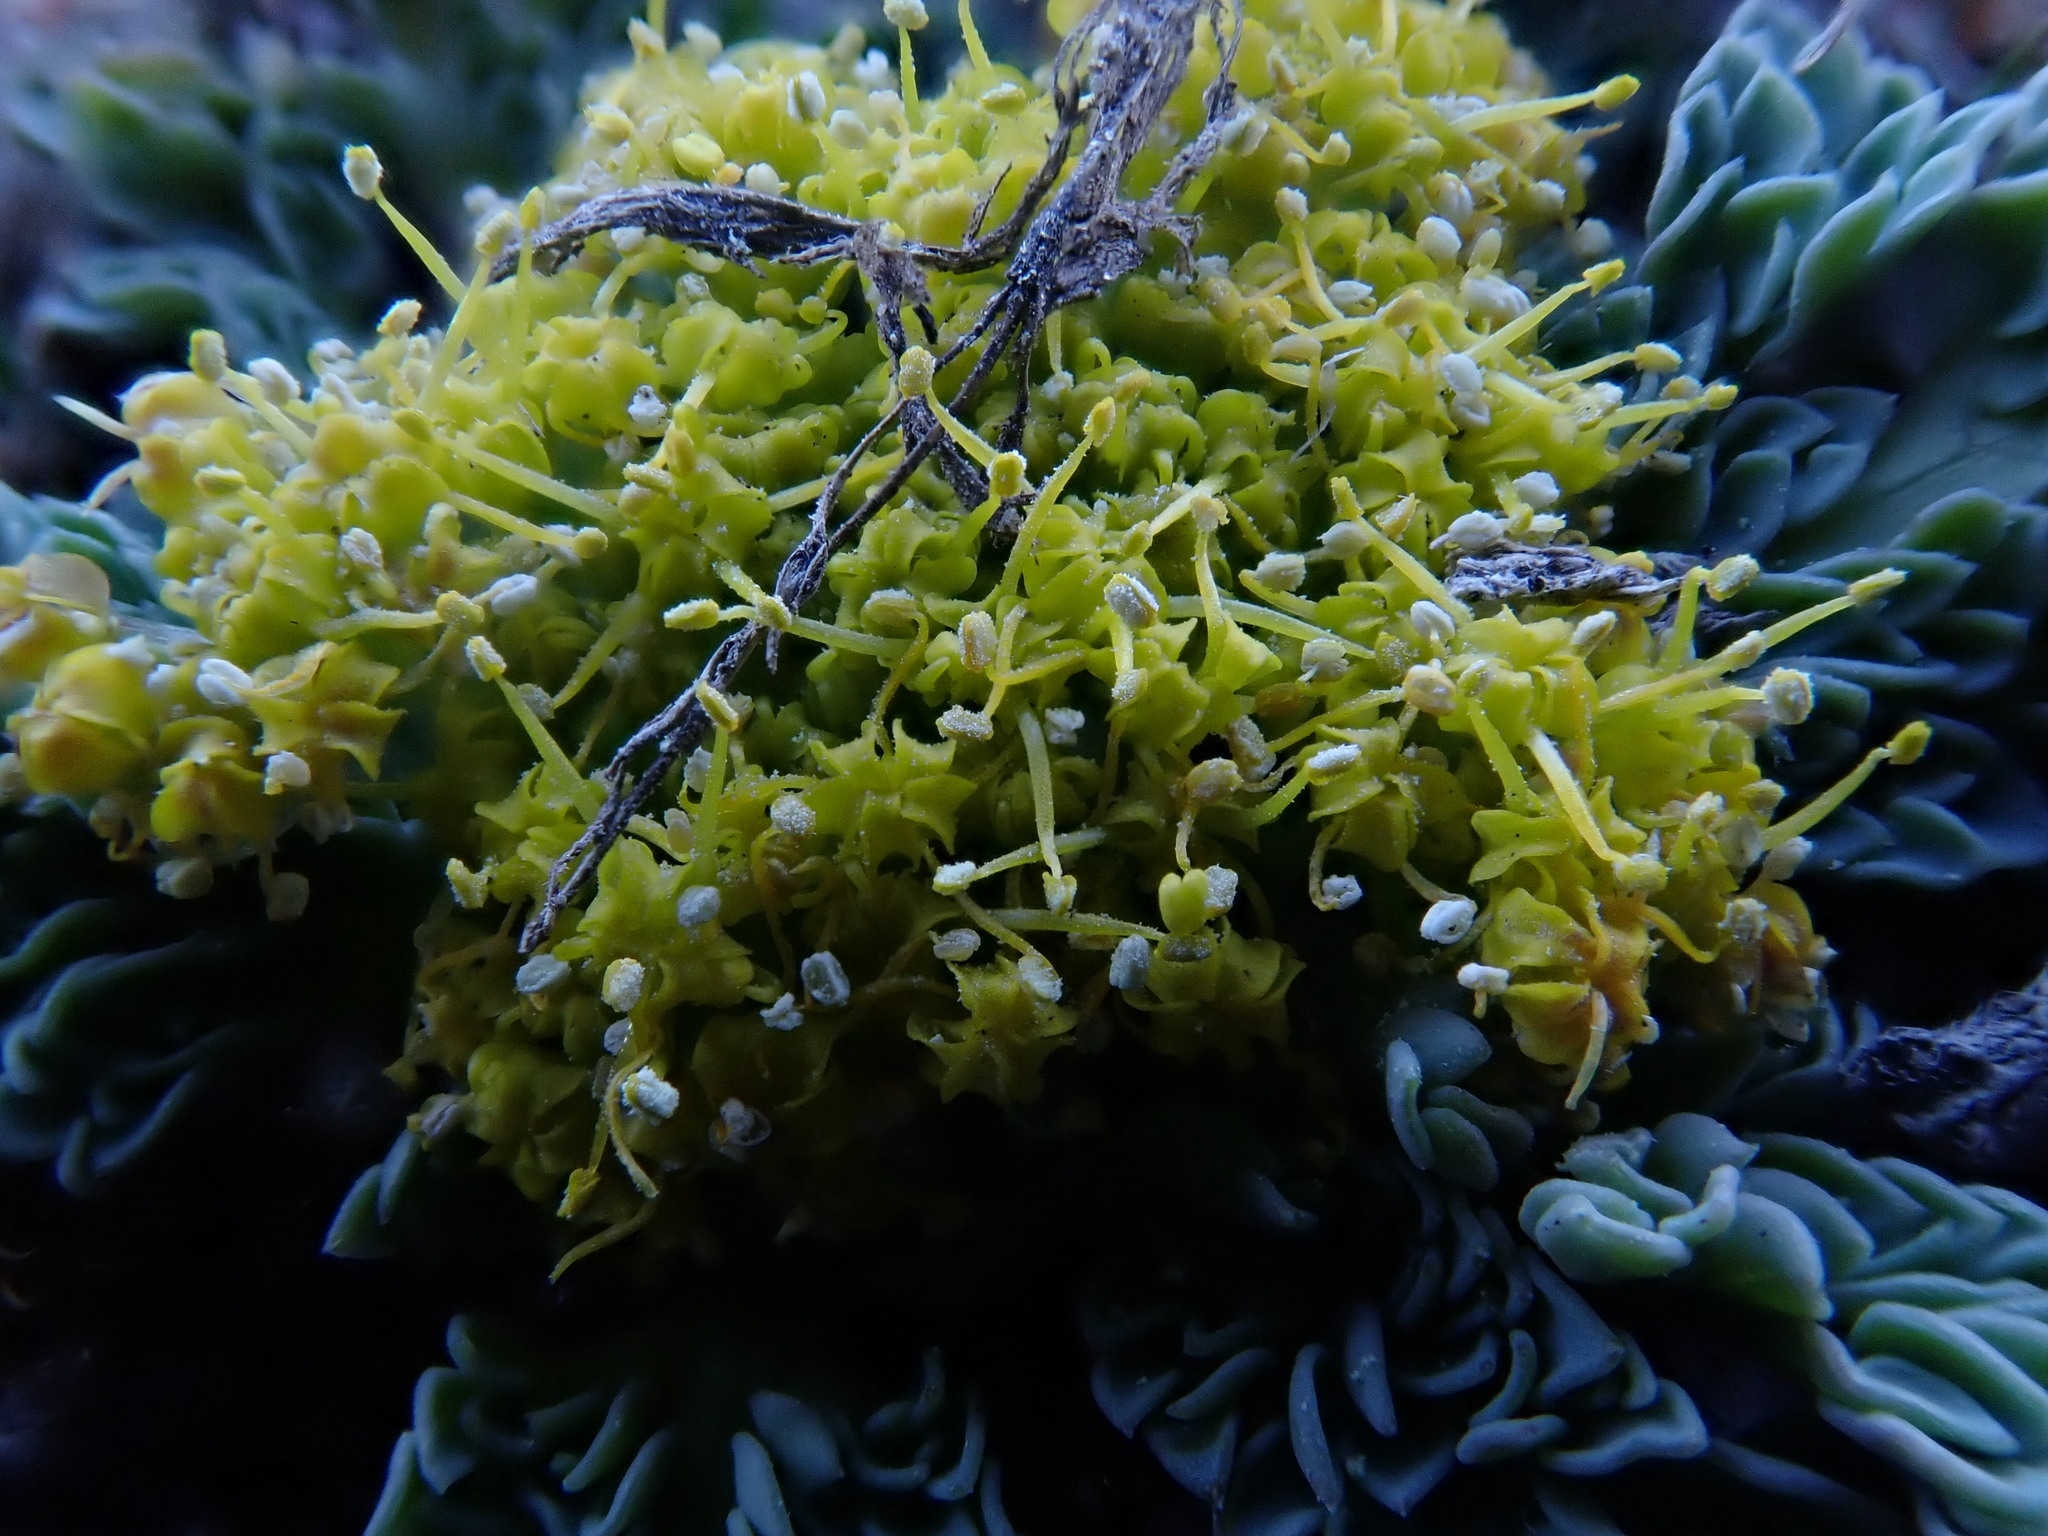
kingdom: Plantae
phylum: Tracheophyta
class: Magnoliopsida
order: Apiales
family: Apiaceae
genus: Aulospermum
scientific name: Aulospermum longipes
